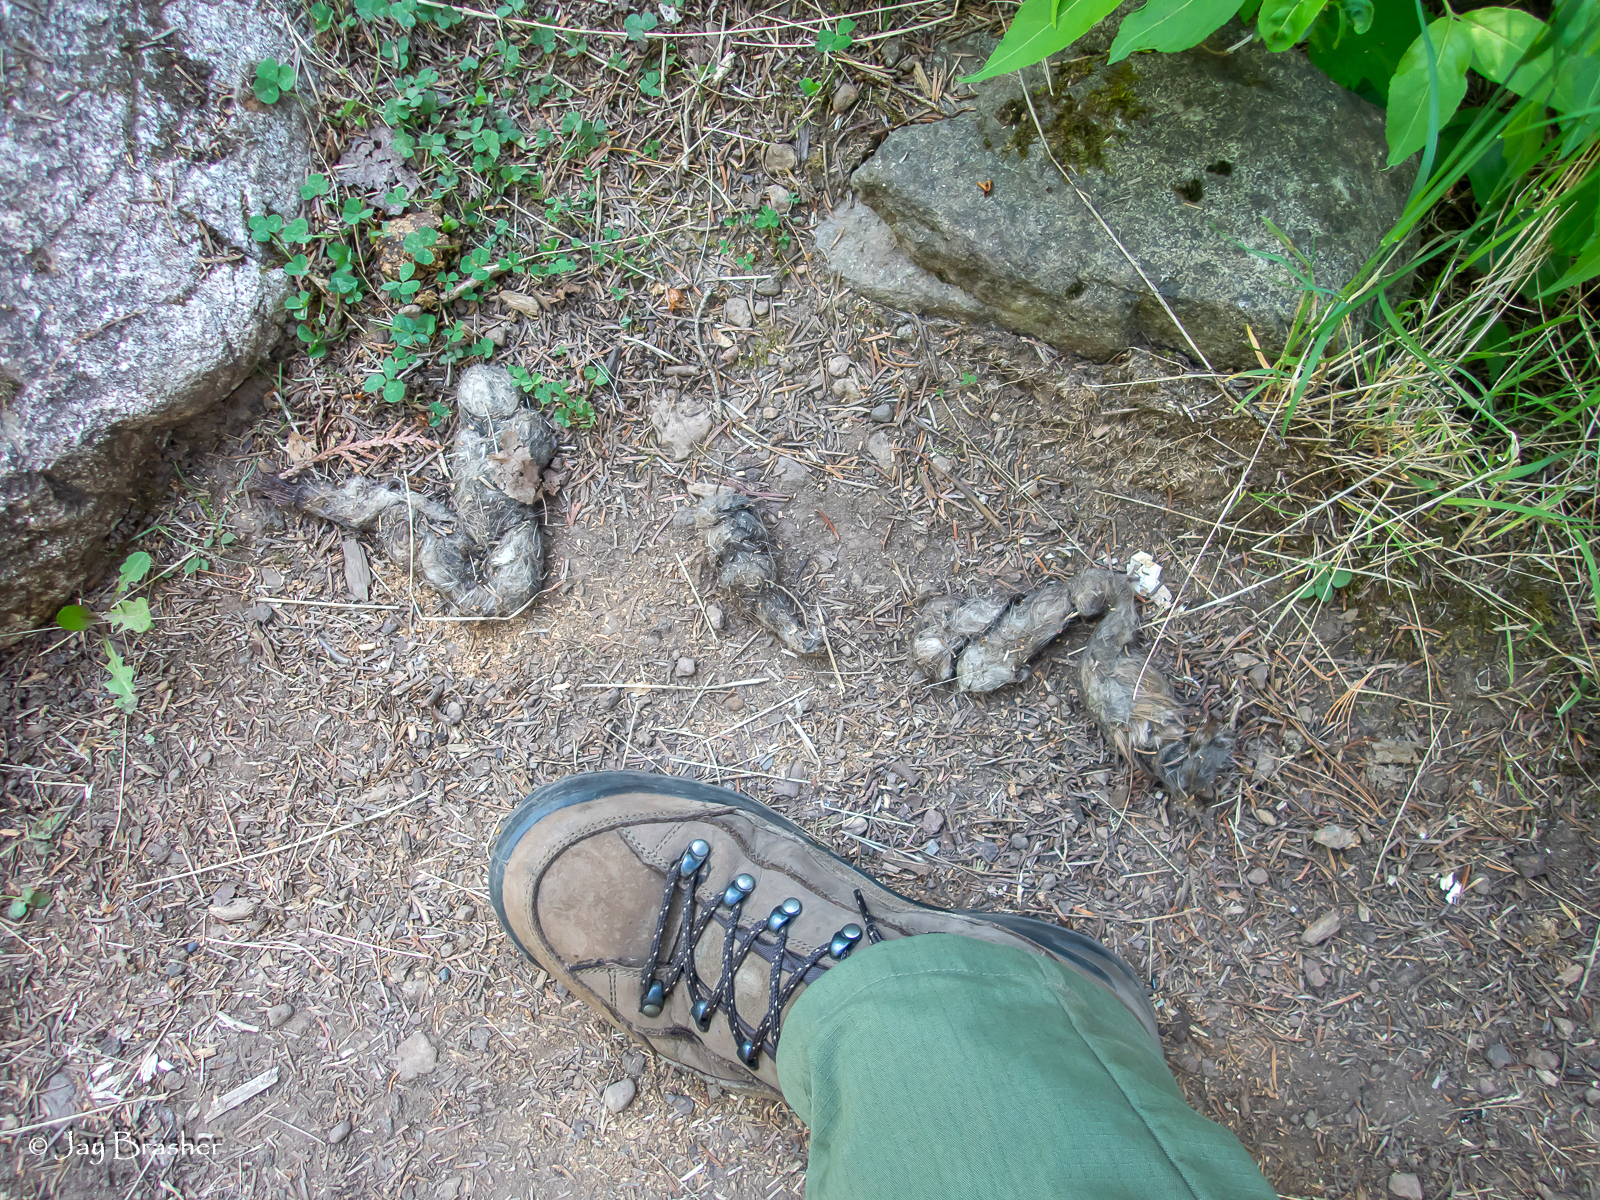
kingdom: Animalia
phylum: Chordata
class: Mammalia
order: Carnivora
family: Canidae
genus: Canis
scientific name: Canis lupus
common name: Gray wolf
